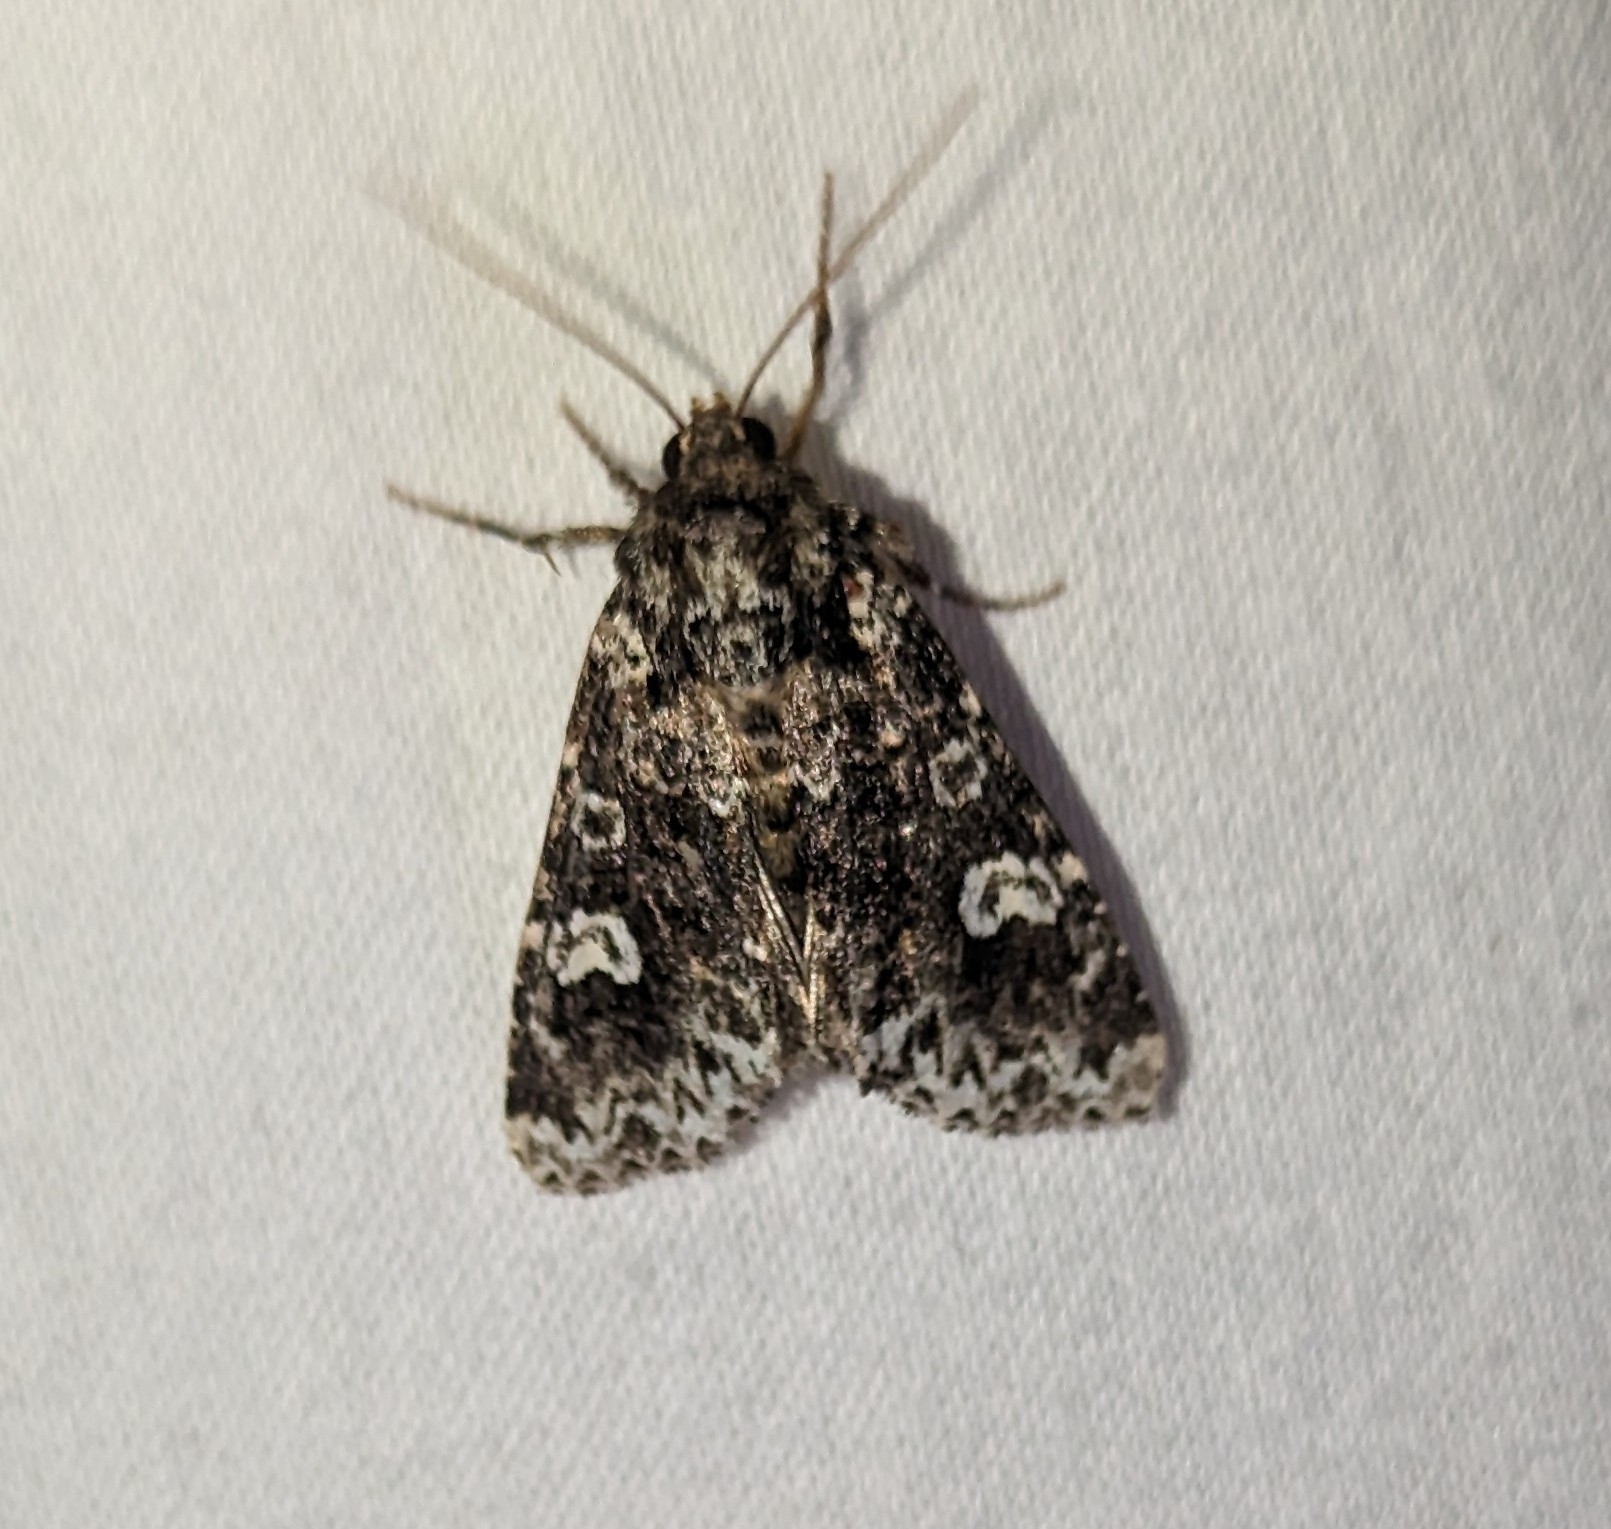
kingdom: Animalia
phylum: Arthropoda
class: Insecta
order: Lepidoptera
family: Noctuidae
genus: Melanchra
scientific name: Melanchra adjuncta
